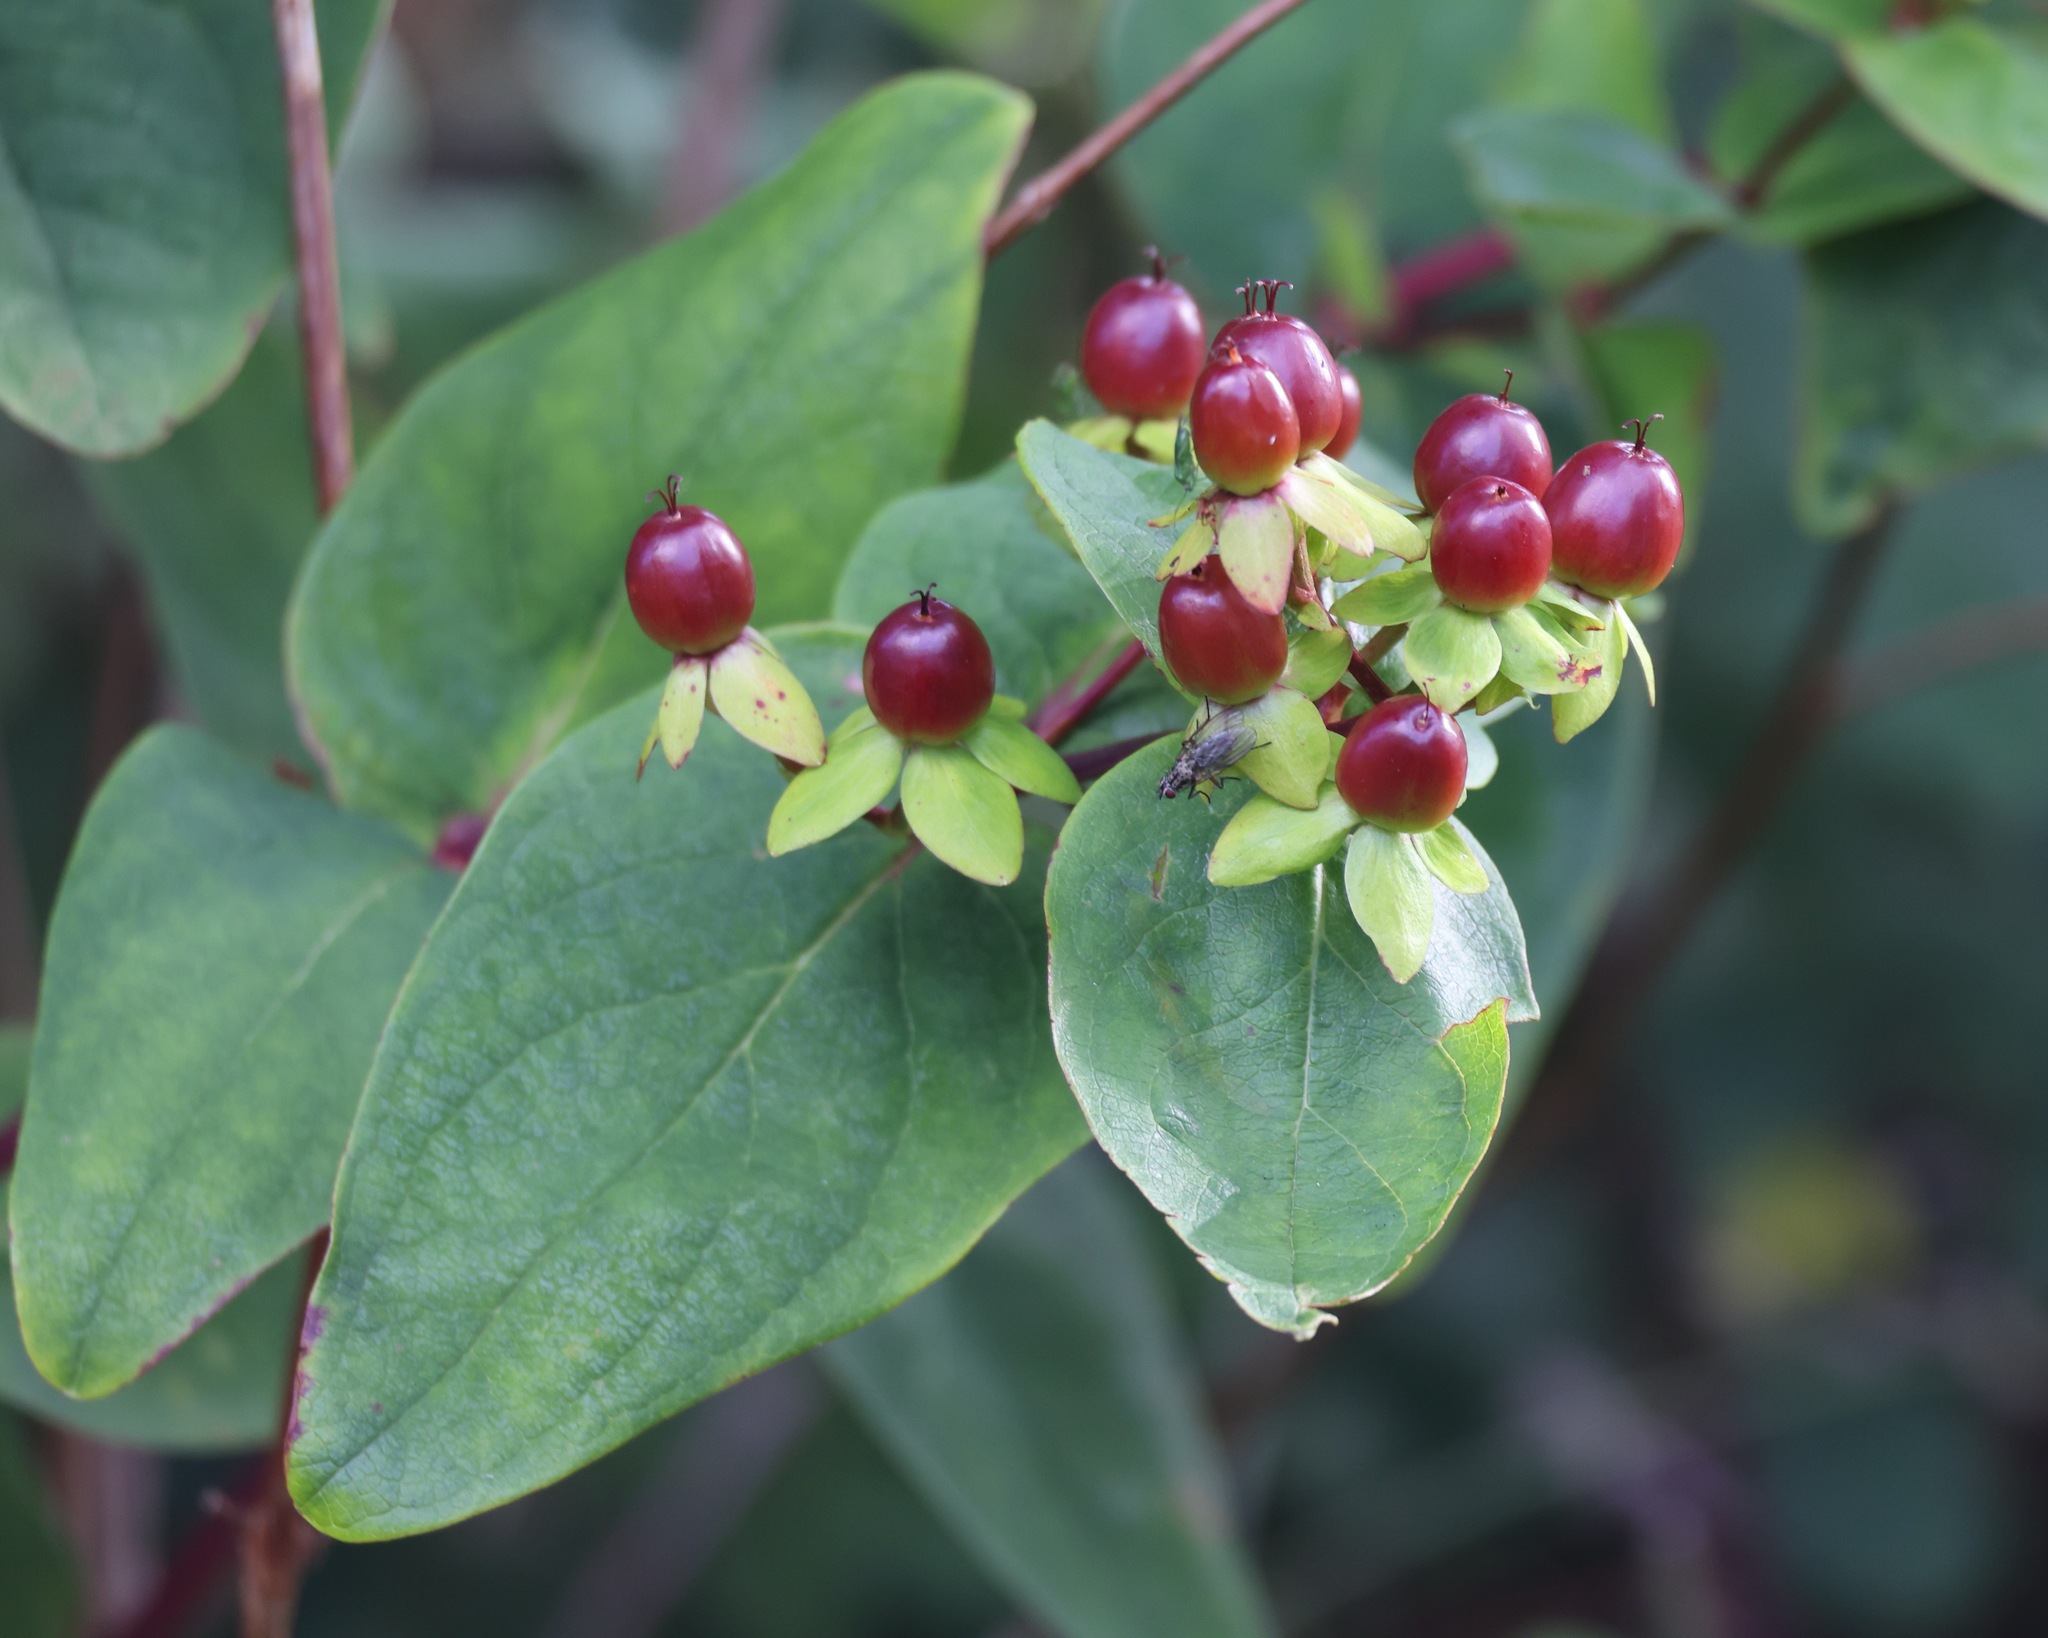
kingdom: Plantae
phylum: Tracheophyta
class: Magnoliopsida
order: Malpighiales
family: Hypericaceae
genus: Hypericum
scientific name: Hypericum androsaemum
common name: Sweet-amber
